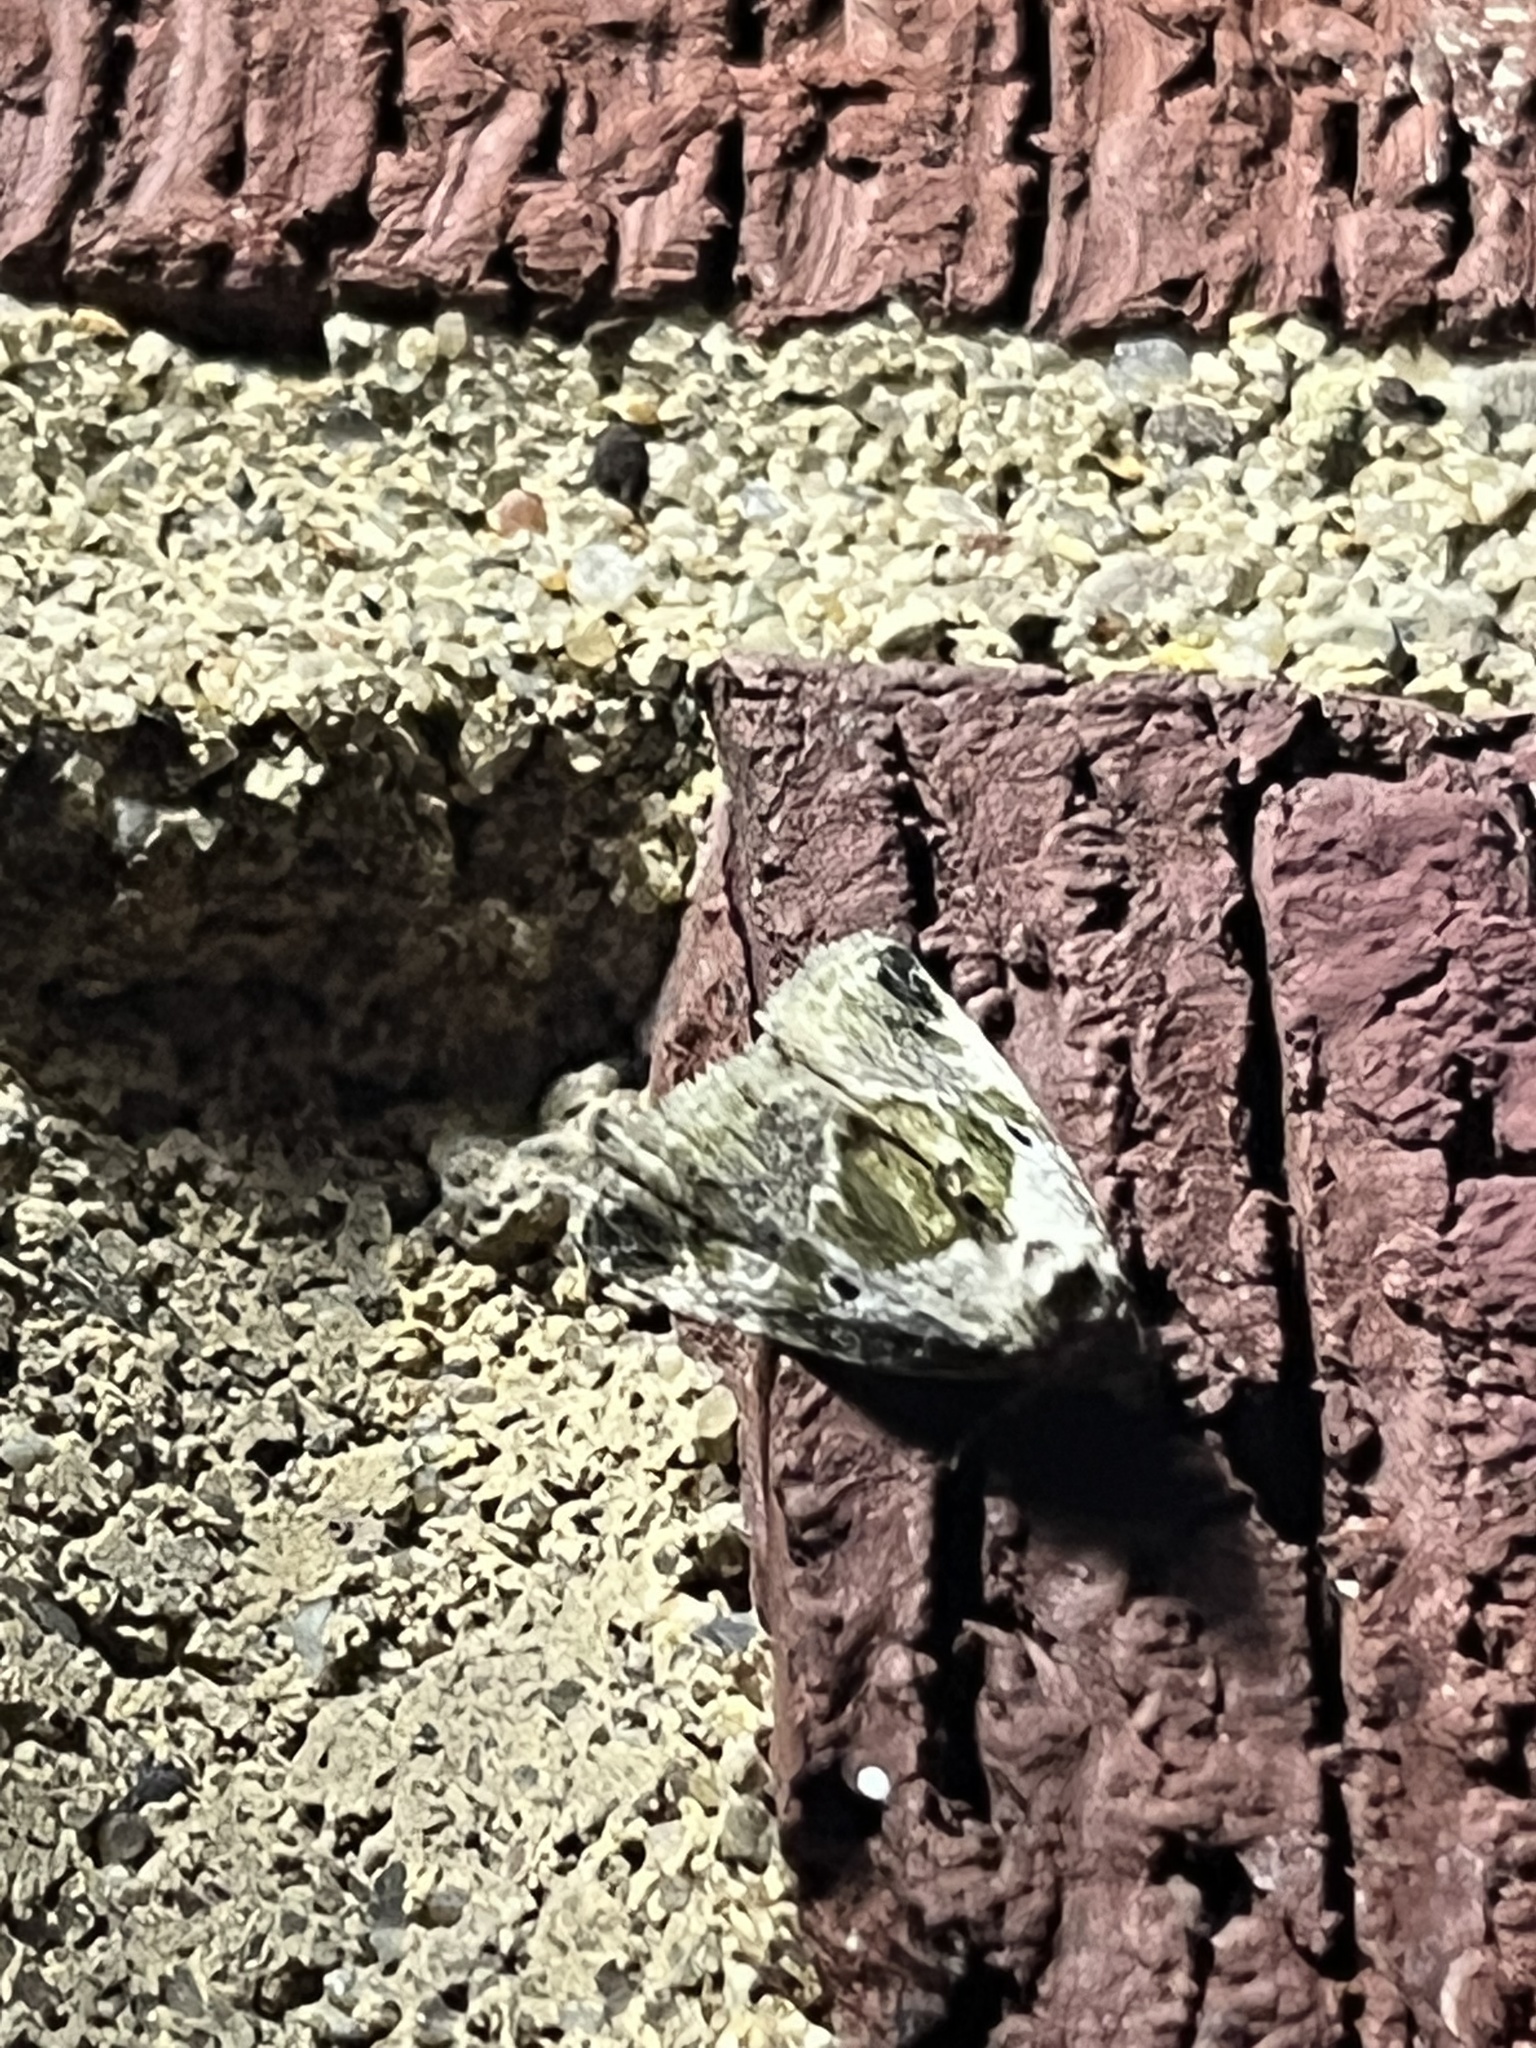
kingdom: Animalia
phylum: Arthropoda
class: Insecta
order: Lepidoptera
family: Noctuidae
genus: Maliattha
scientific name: Maliattha synochitis
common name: Black-dotted glyph
